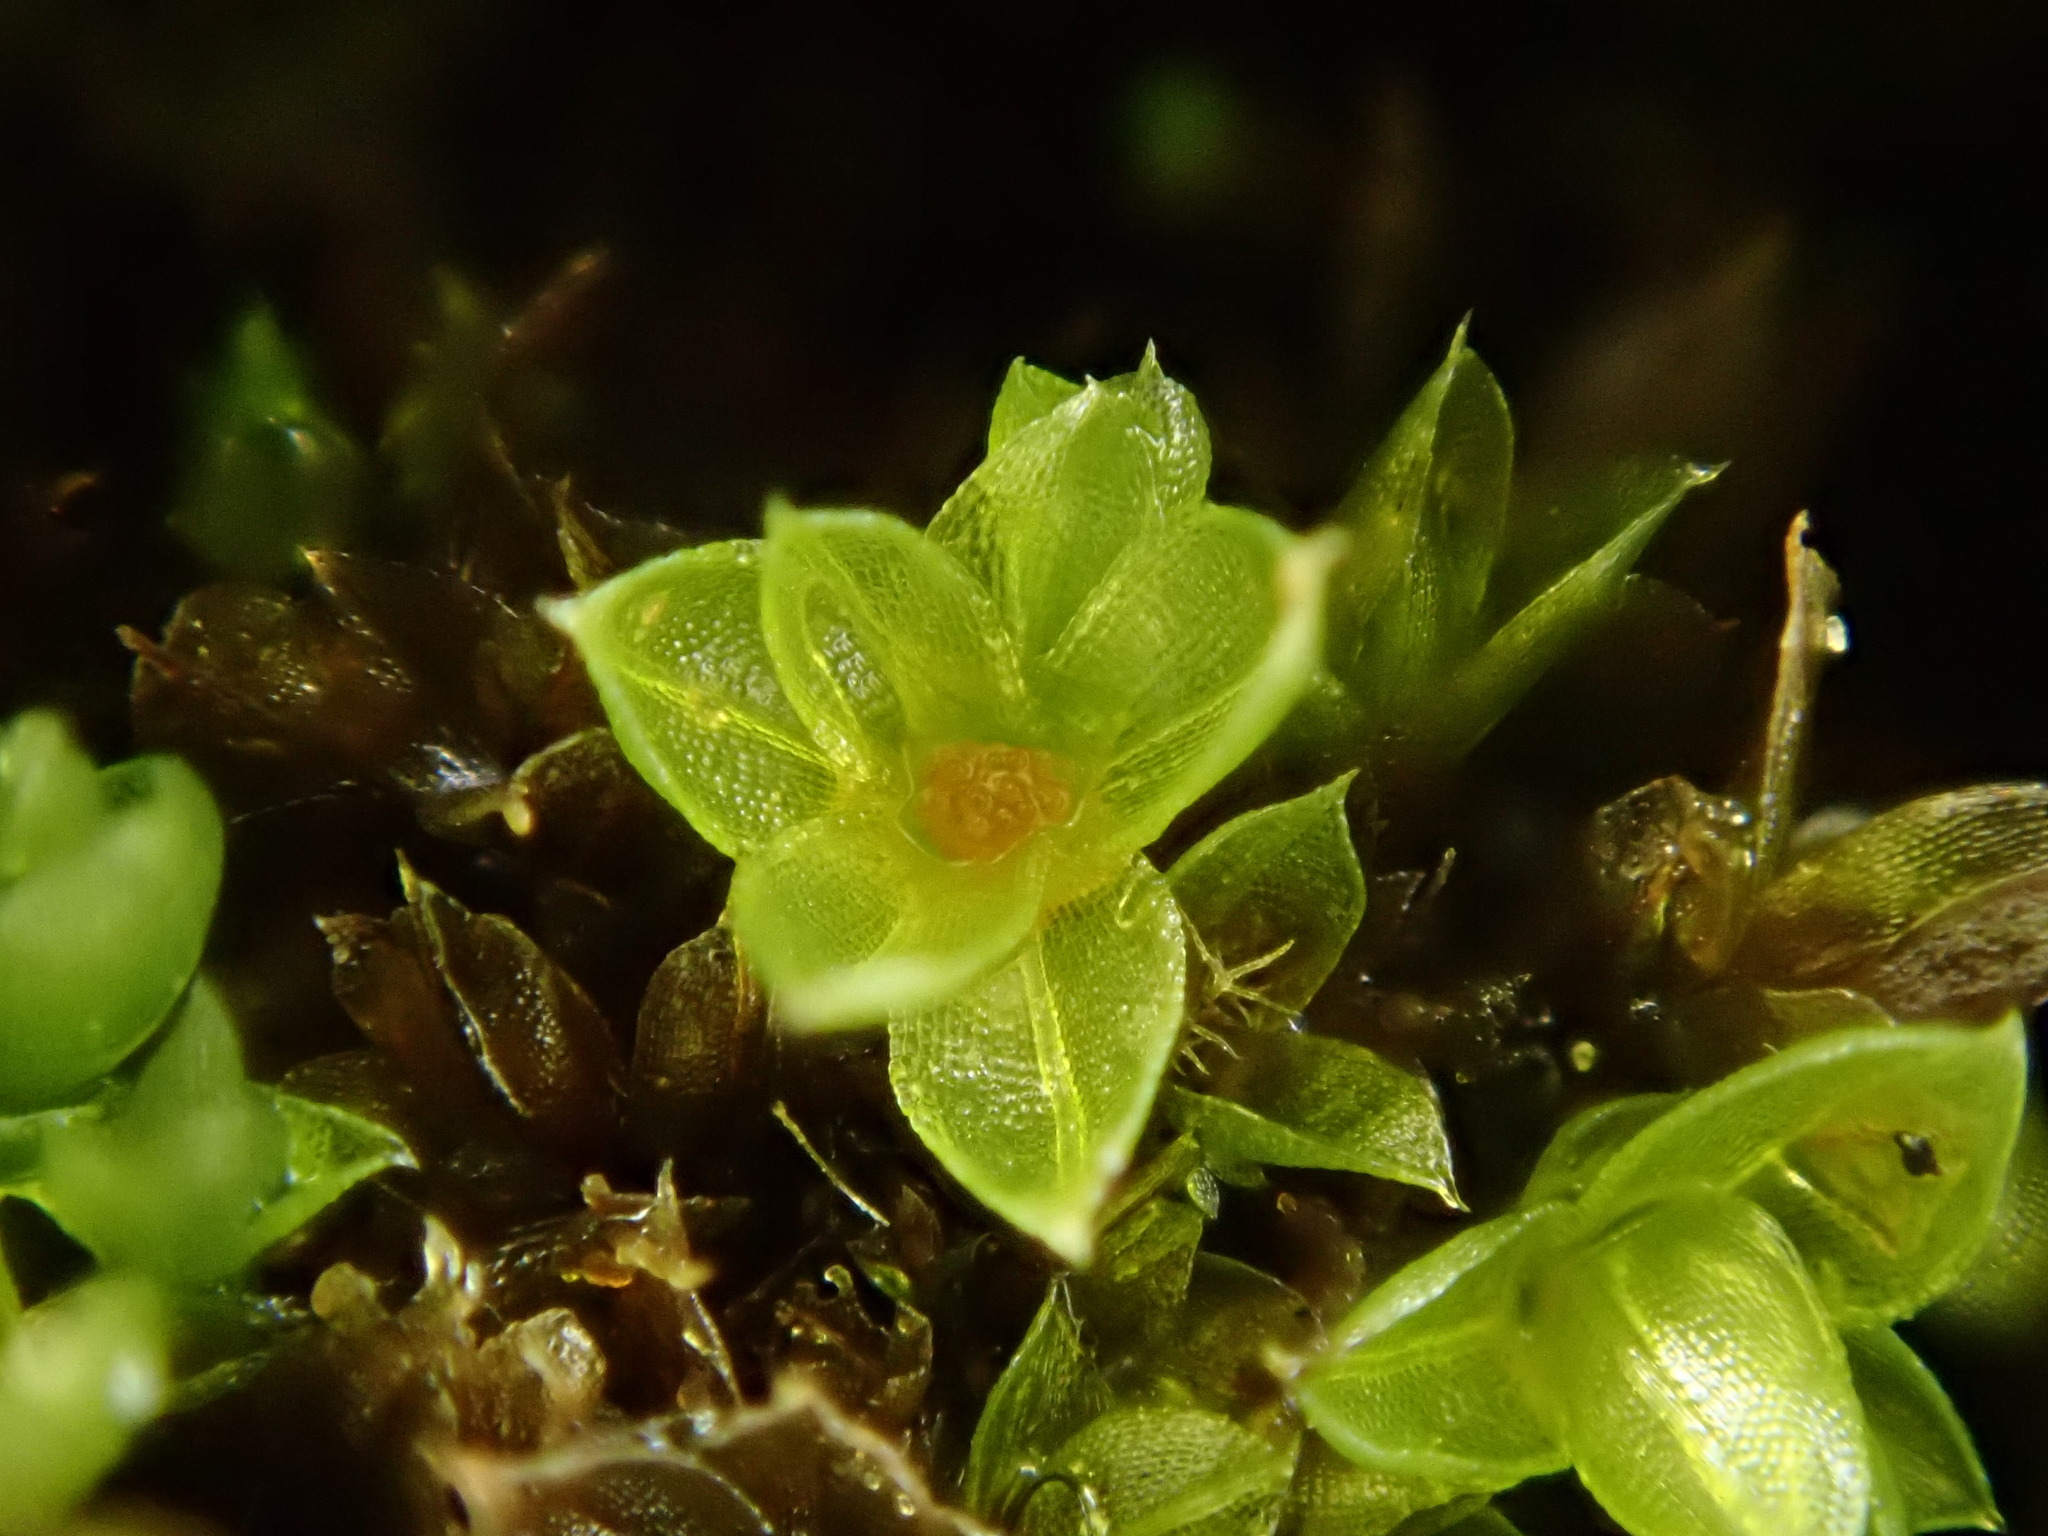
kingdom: Plantae
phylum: Bryophyta
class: Bryopsida
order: Funariales
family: Funariaceae
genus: Physcomitrium
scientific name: Physcomitrium pyriforme
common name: Common bladder-moss
